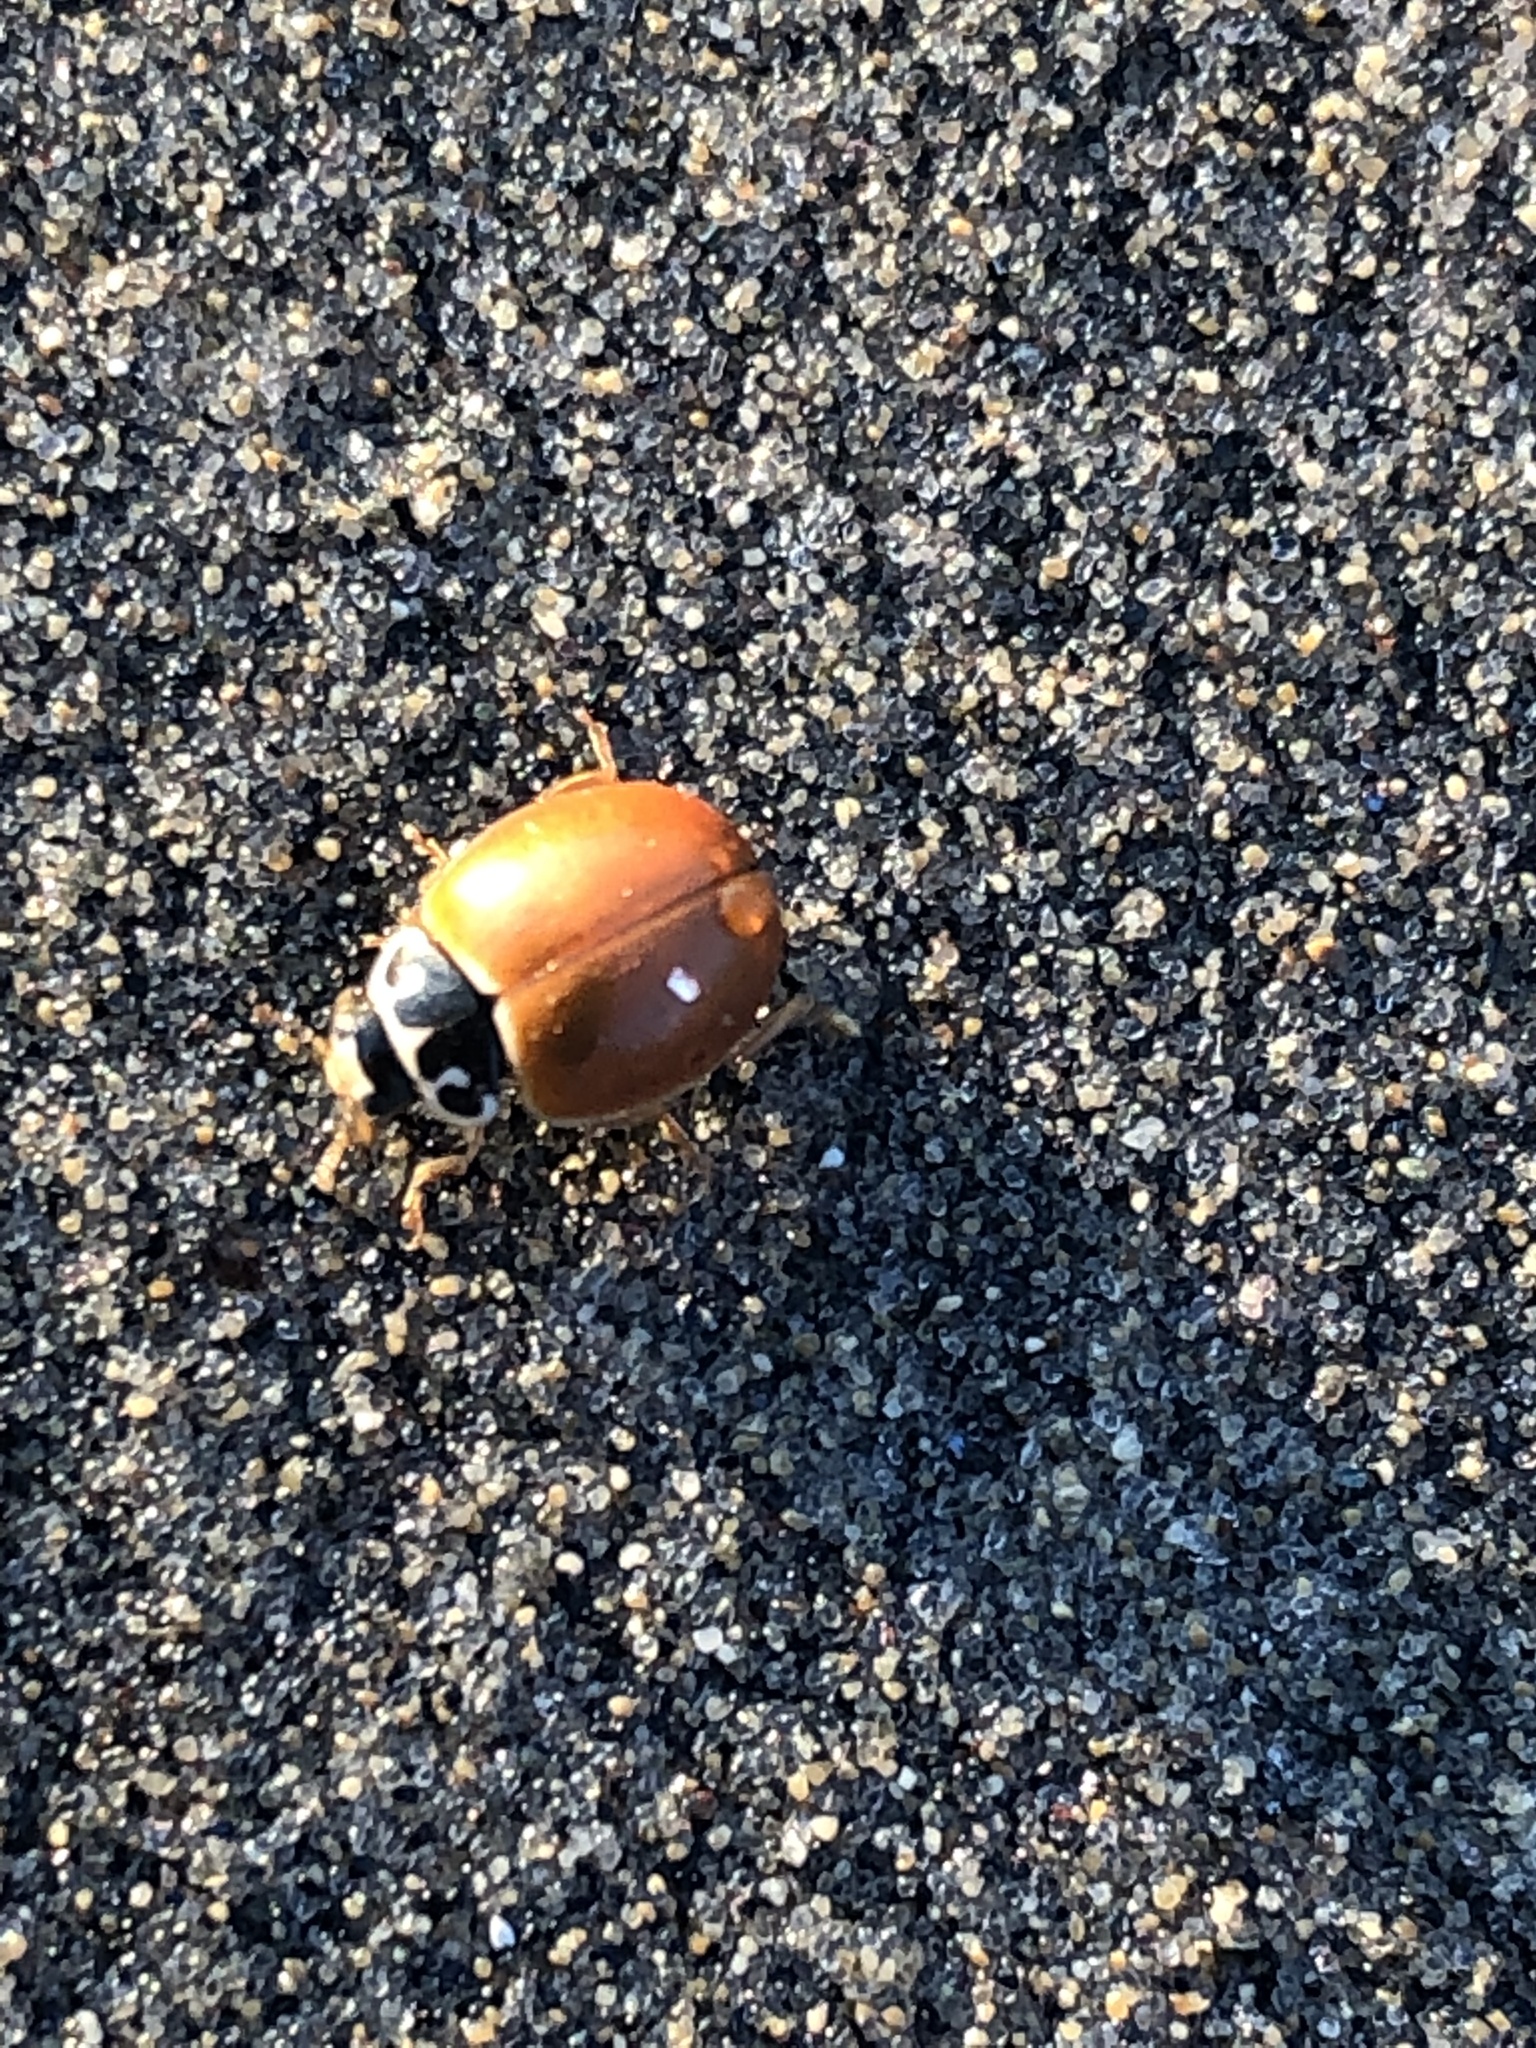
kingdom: Animalia
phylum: Arthropoda
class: Insecta
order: Coleoptera
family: Coccinellidae
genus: Cycloneda
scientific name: Cycloneda munda
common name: Polished lady beetle
